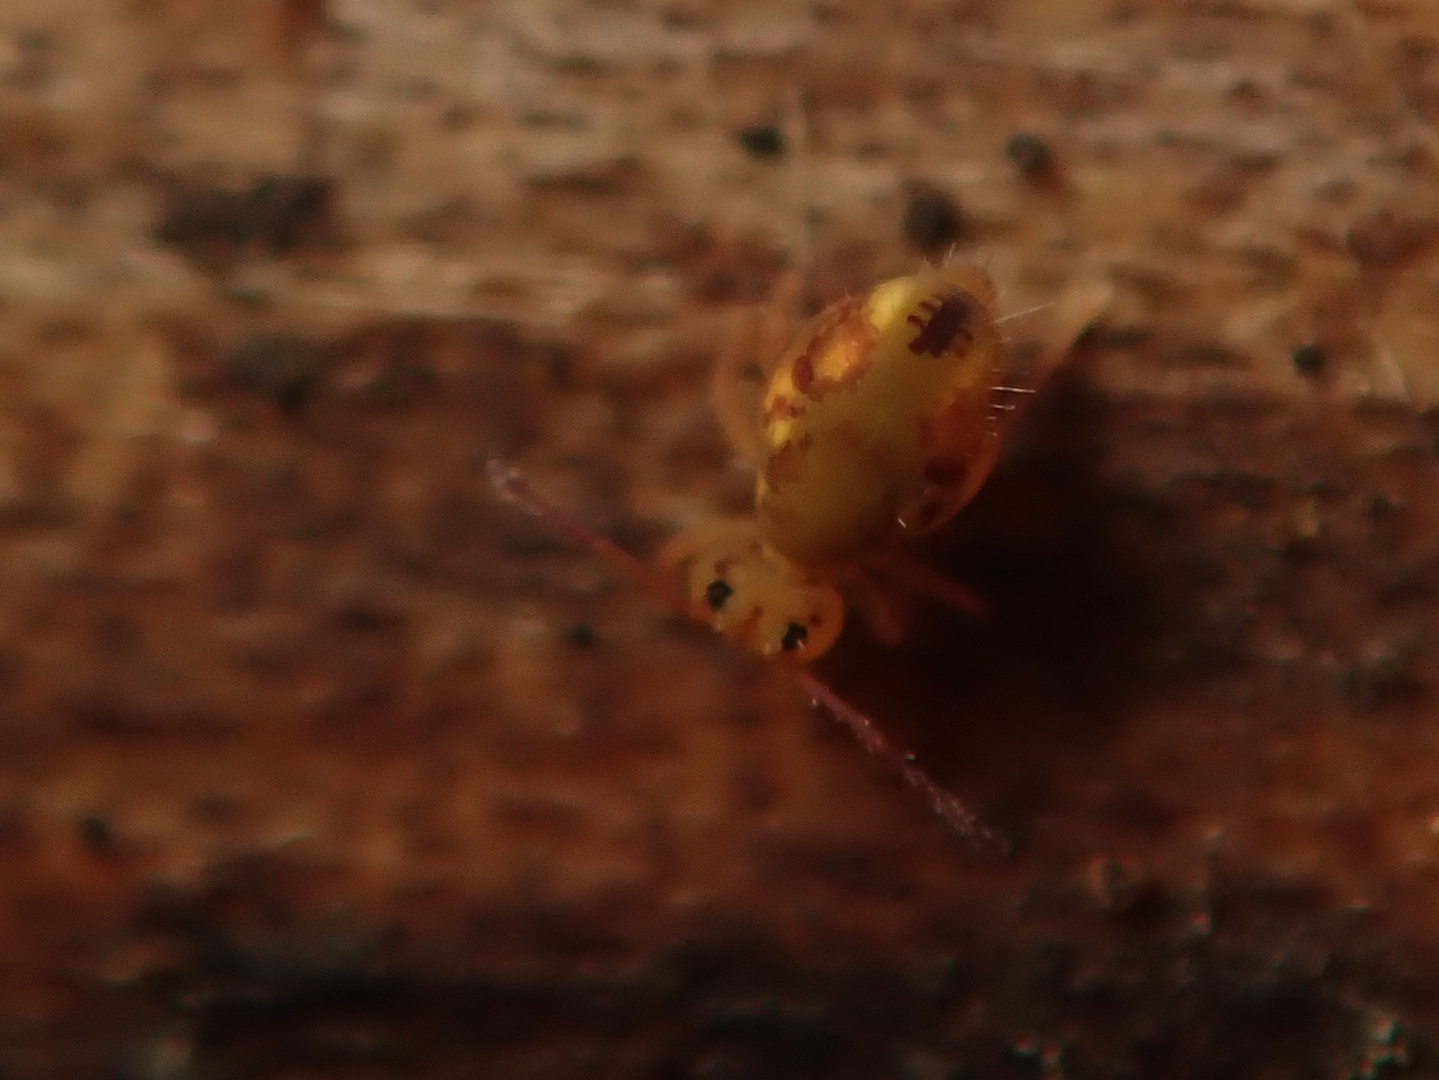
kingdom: Animalia
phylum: Arthropoda
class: Collembola
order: Symphypleona
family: Dicyrtomidae
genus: Dicyrtomina
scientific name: Dicyrtomina saundersi
